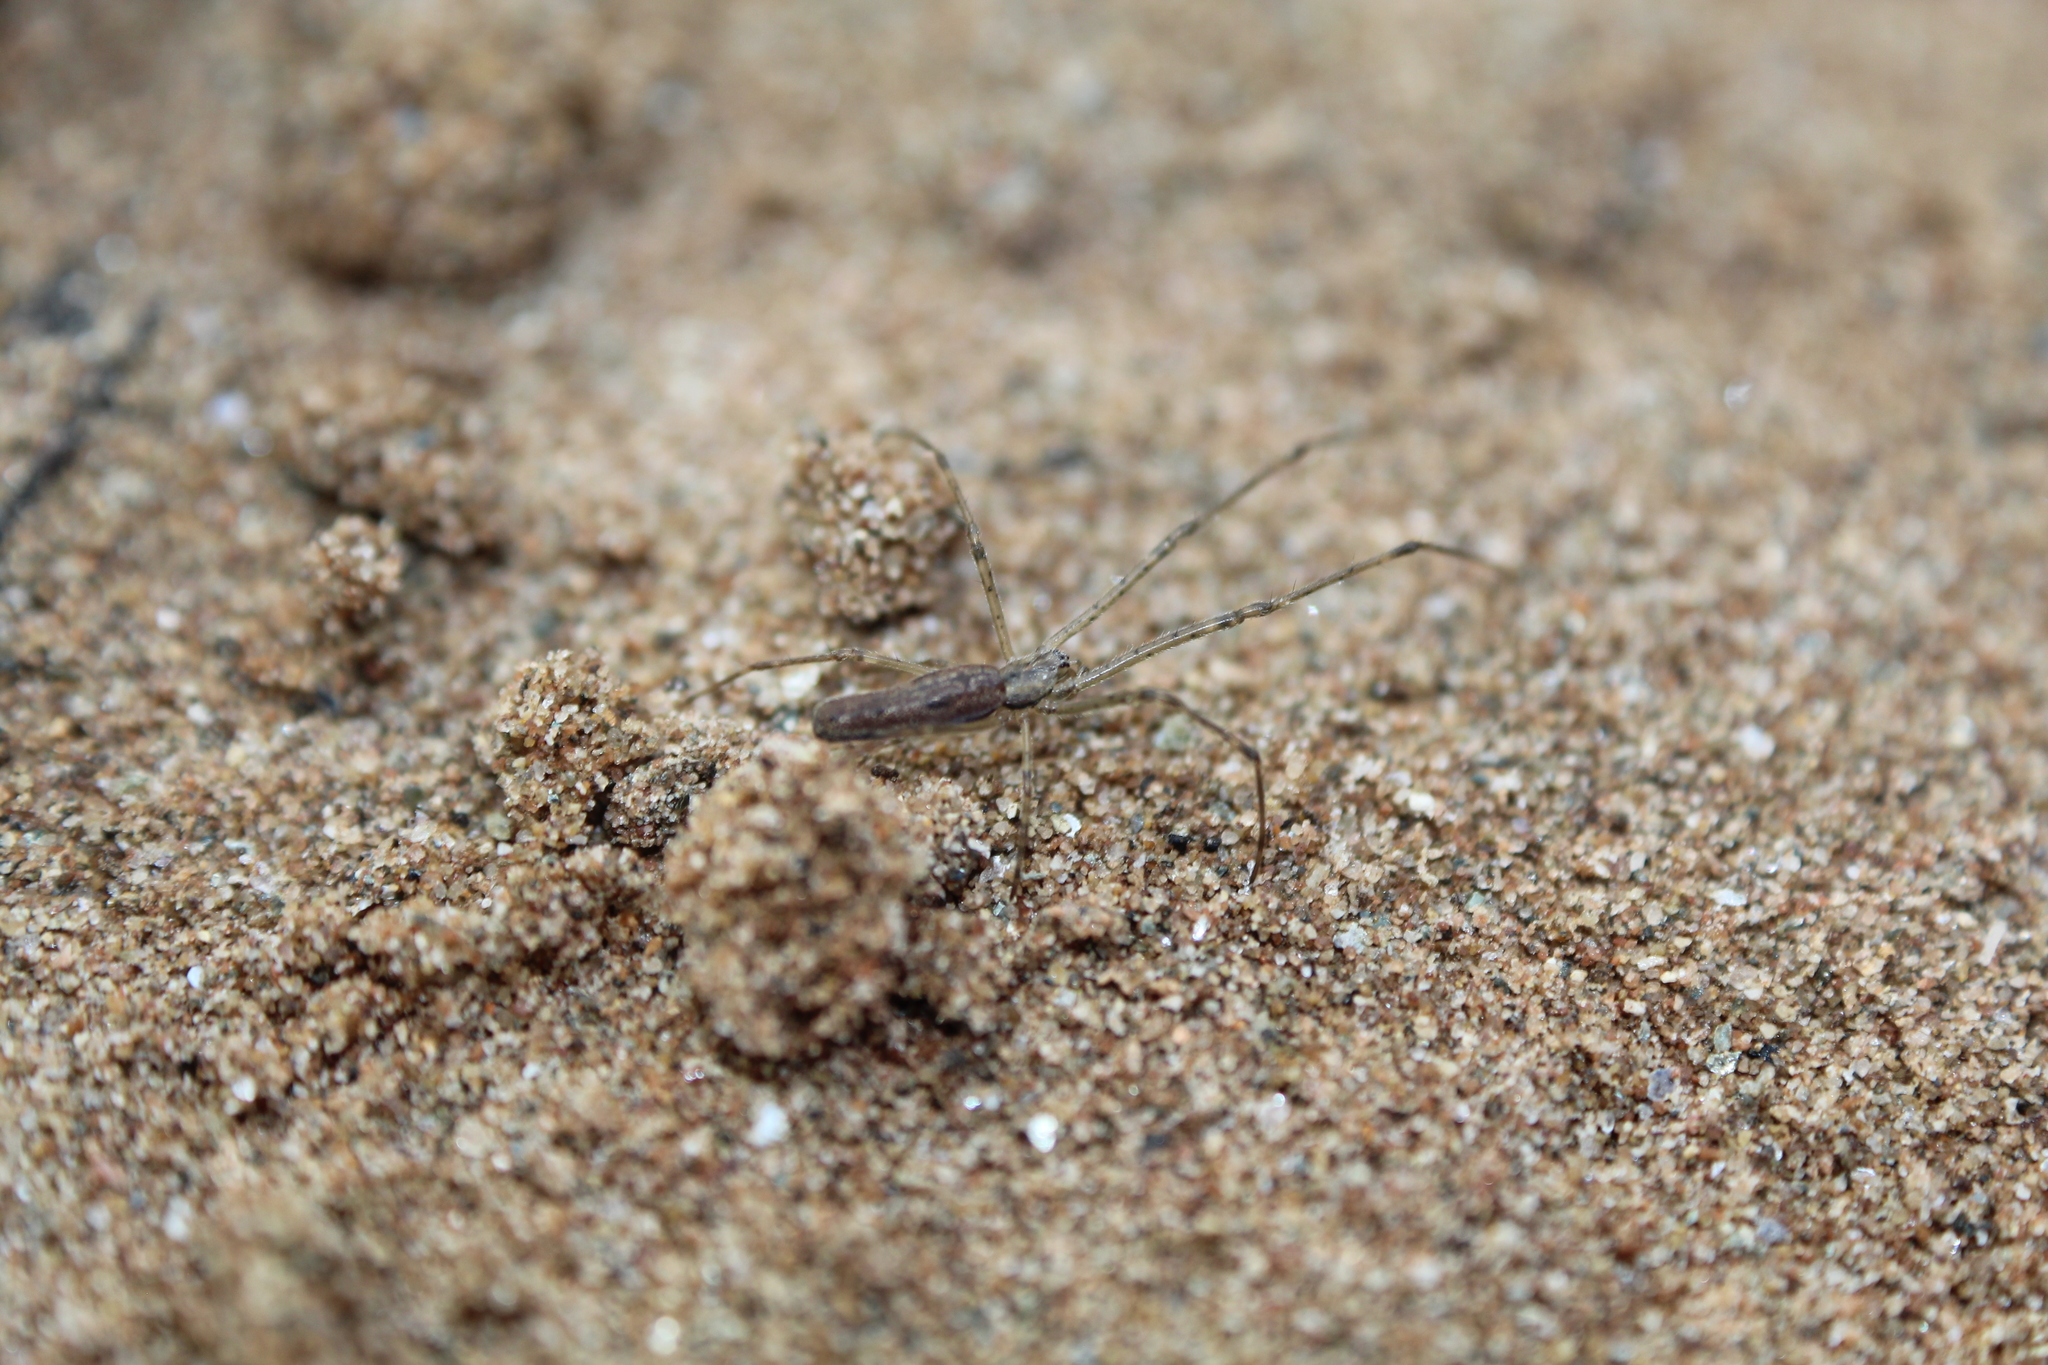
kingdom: Animalia
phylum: Arthropoda
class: Arachnida
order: Araneae
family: Tetragnathidae
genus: Tetragnatha
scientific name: Tetragnatha
